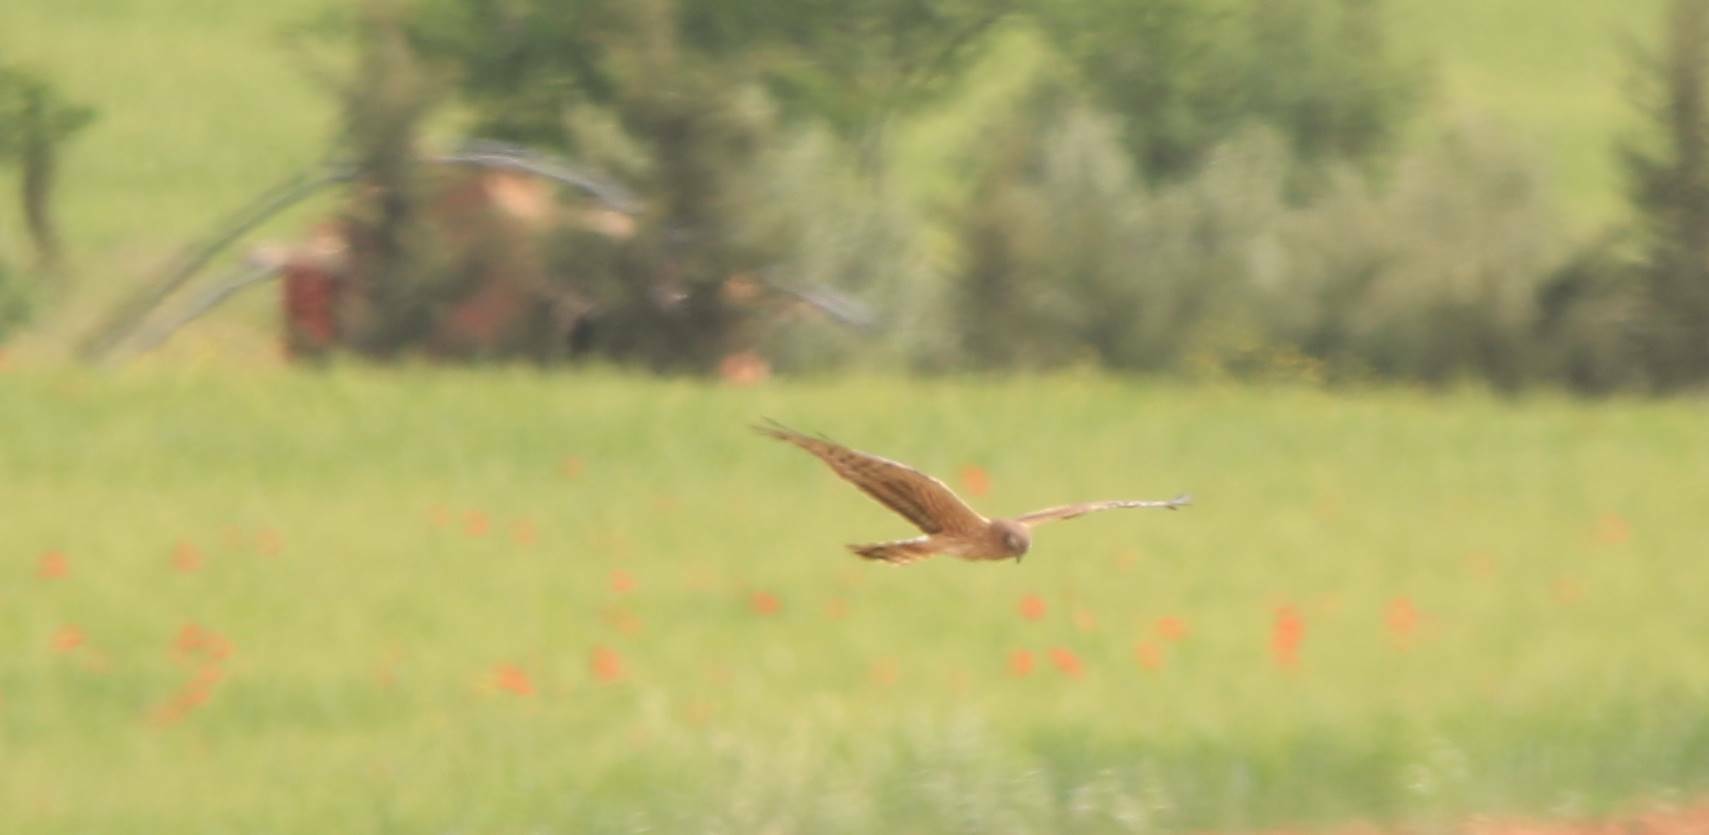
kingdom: Animalia
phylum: Chordata
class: Aves
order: Accipitriformes
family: Accipitridae
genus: Circus
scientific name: Circus pygargus
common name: Montagu's harrier
